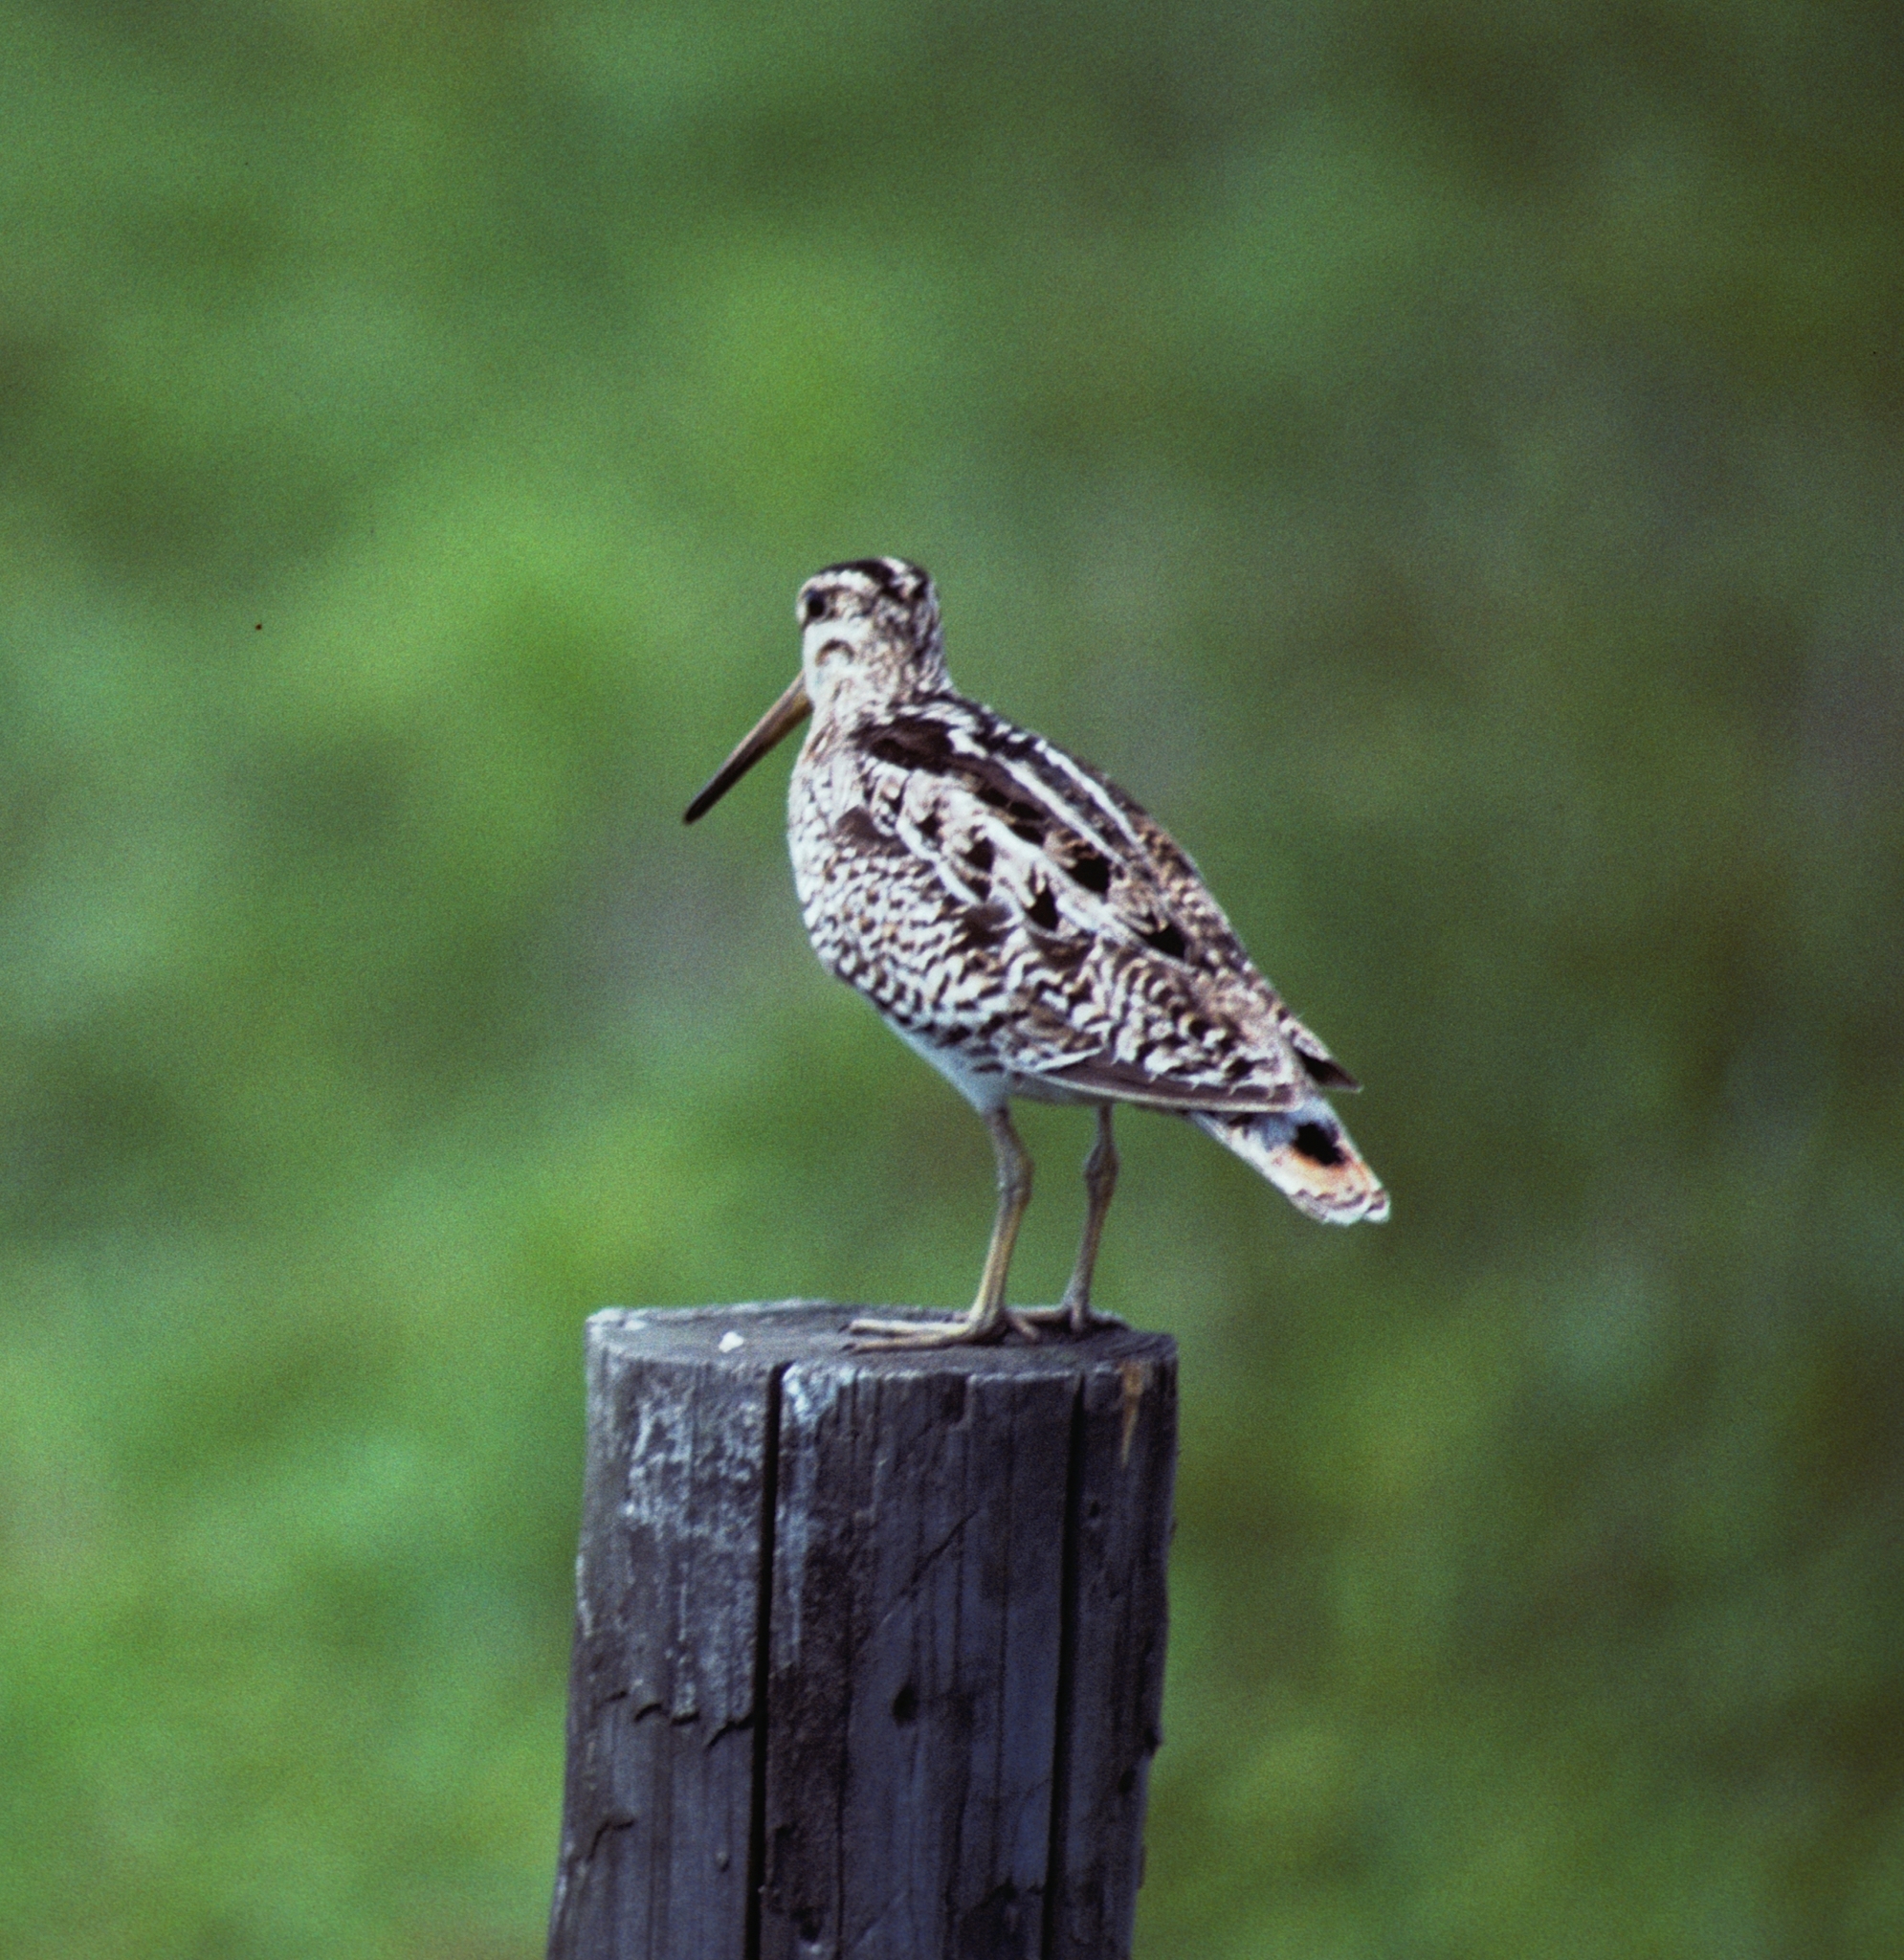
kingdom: Animalia
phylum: Chordata
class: Aves
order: Charadriiformes
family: Scolopacidae
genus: Gallinago
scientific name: Gallinago hardwickii
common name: Latham's snipe
